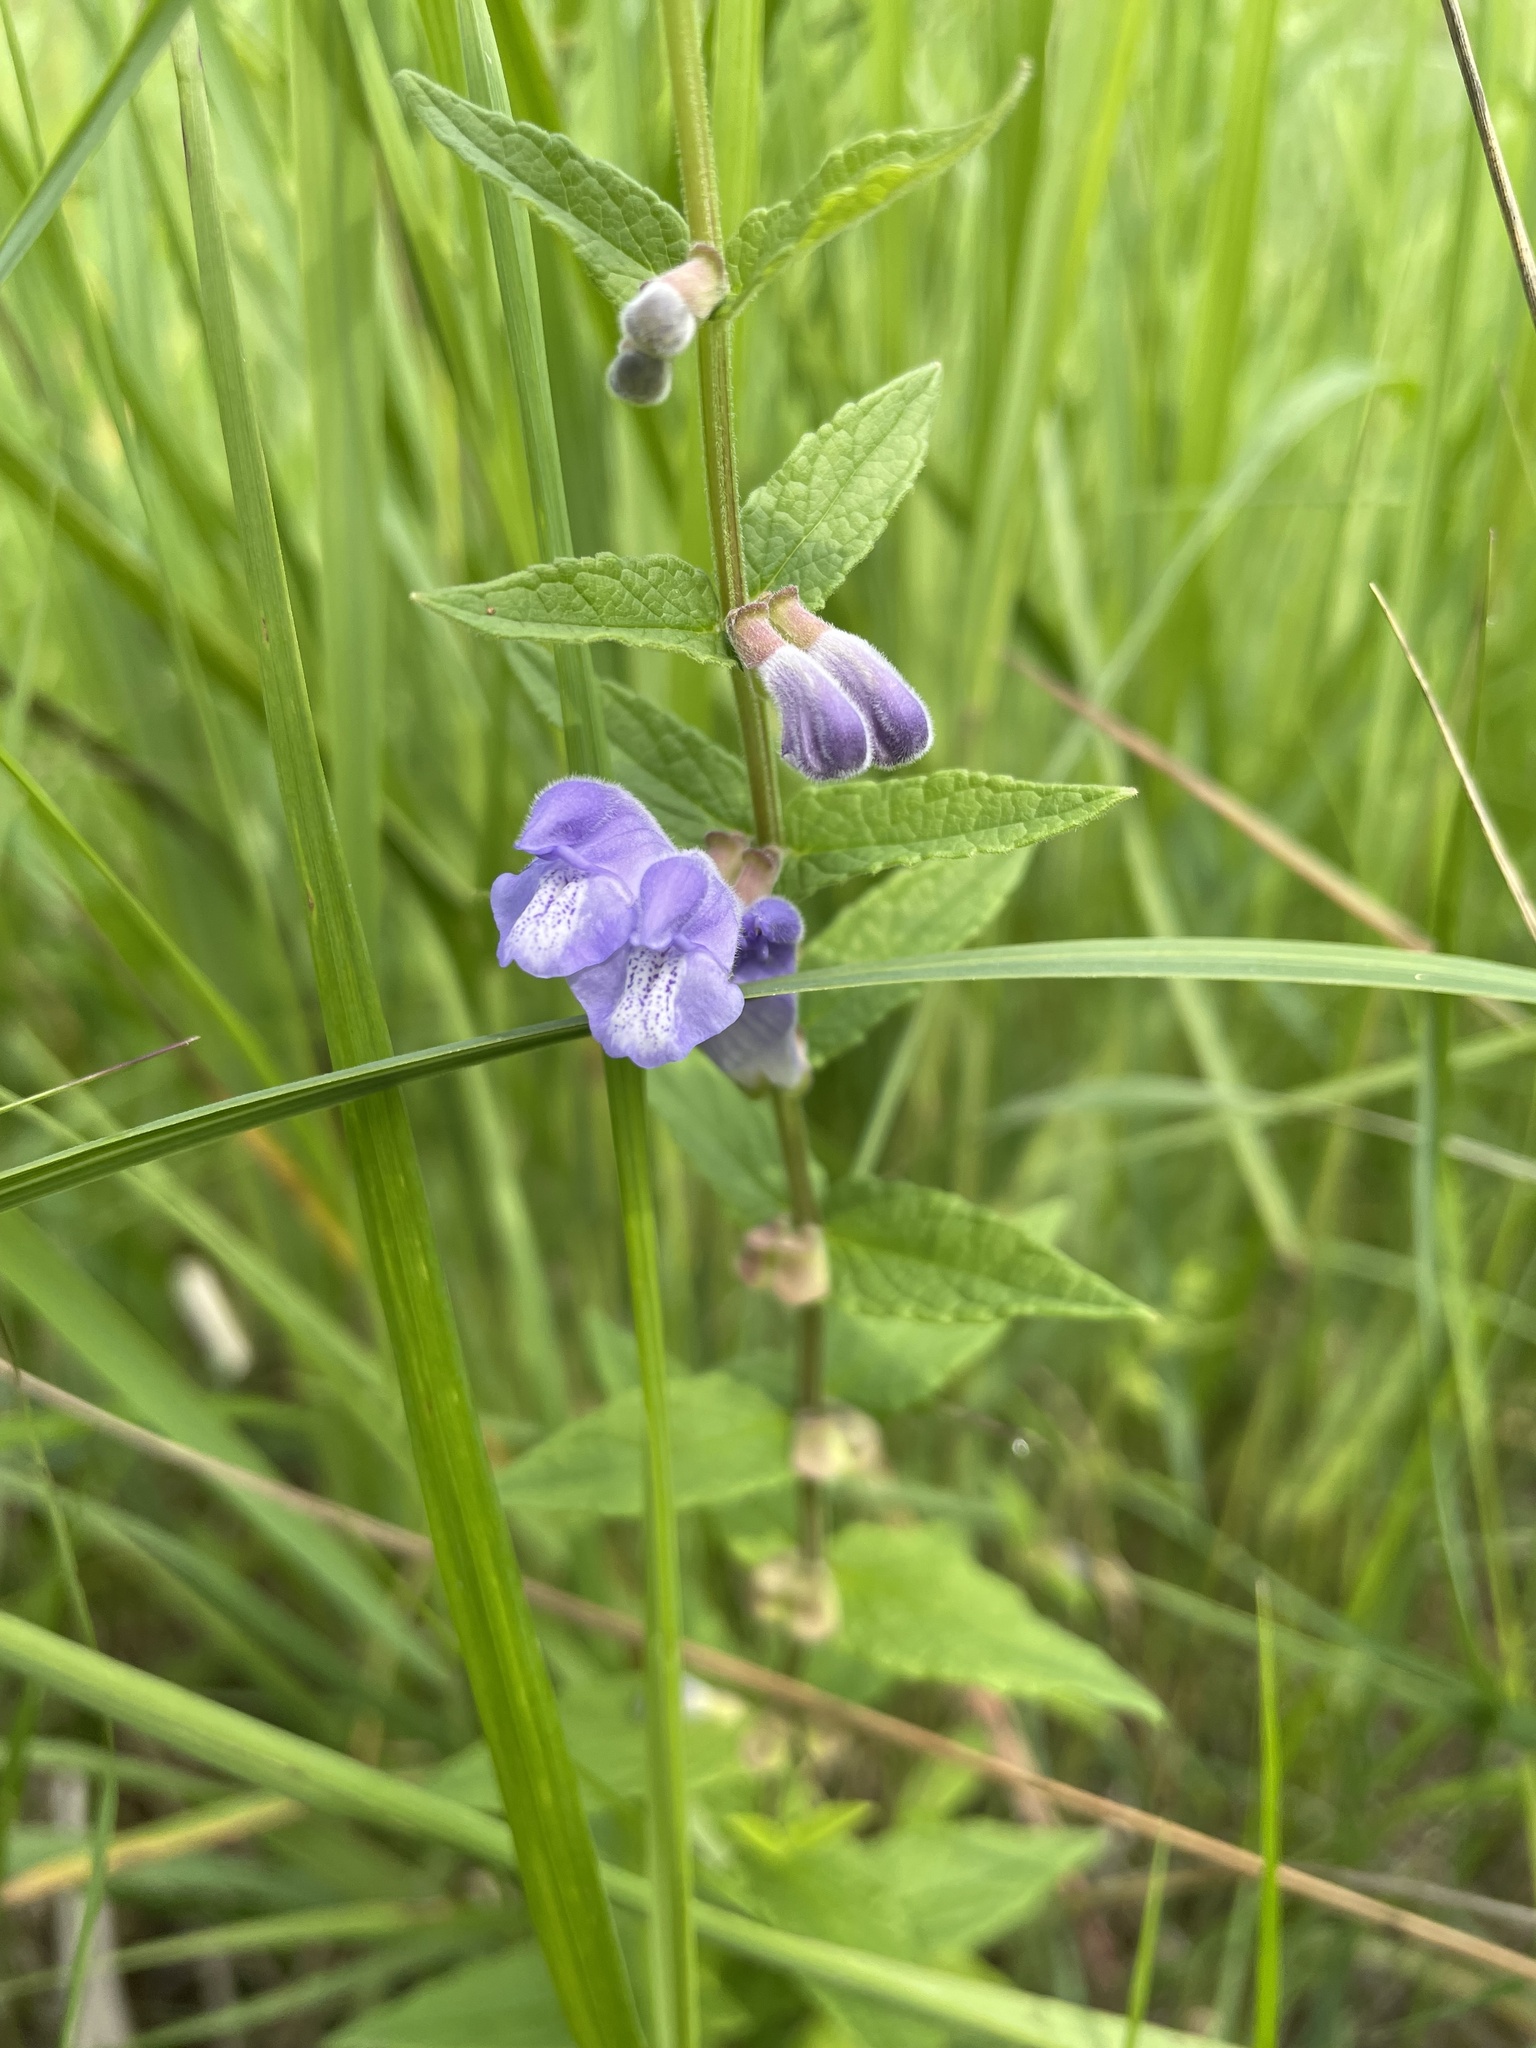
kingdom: Plantae
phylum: Tracheophyta
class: Magnoliopsida
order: Lamiales
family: Lamiaceae
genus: Scutellaria
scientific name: Scutellaria galericulata
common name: Skullcap
